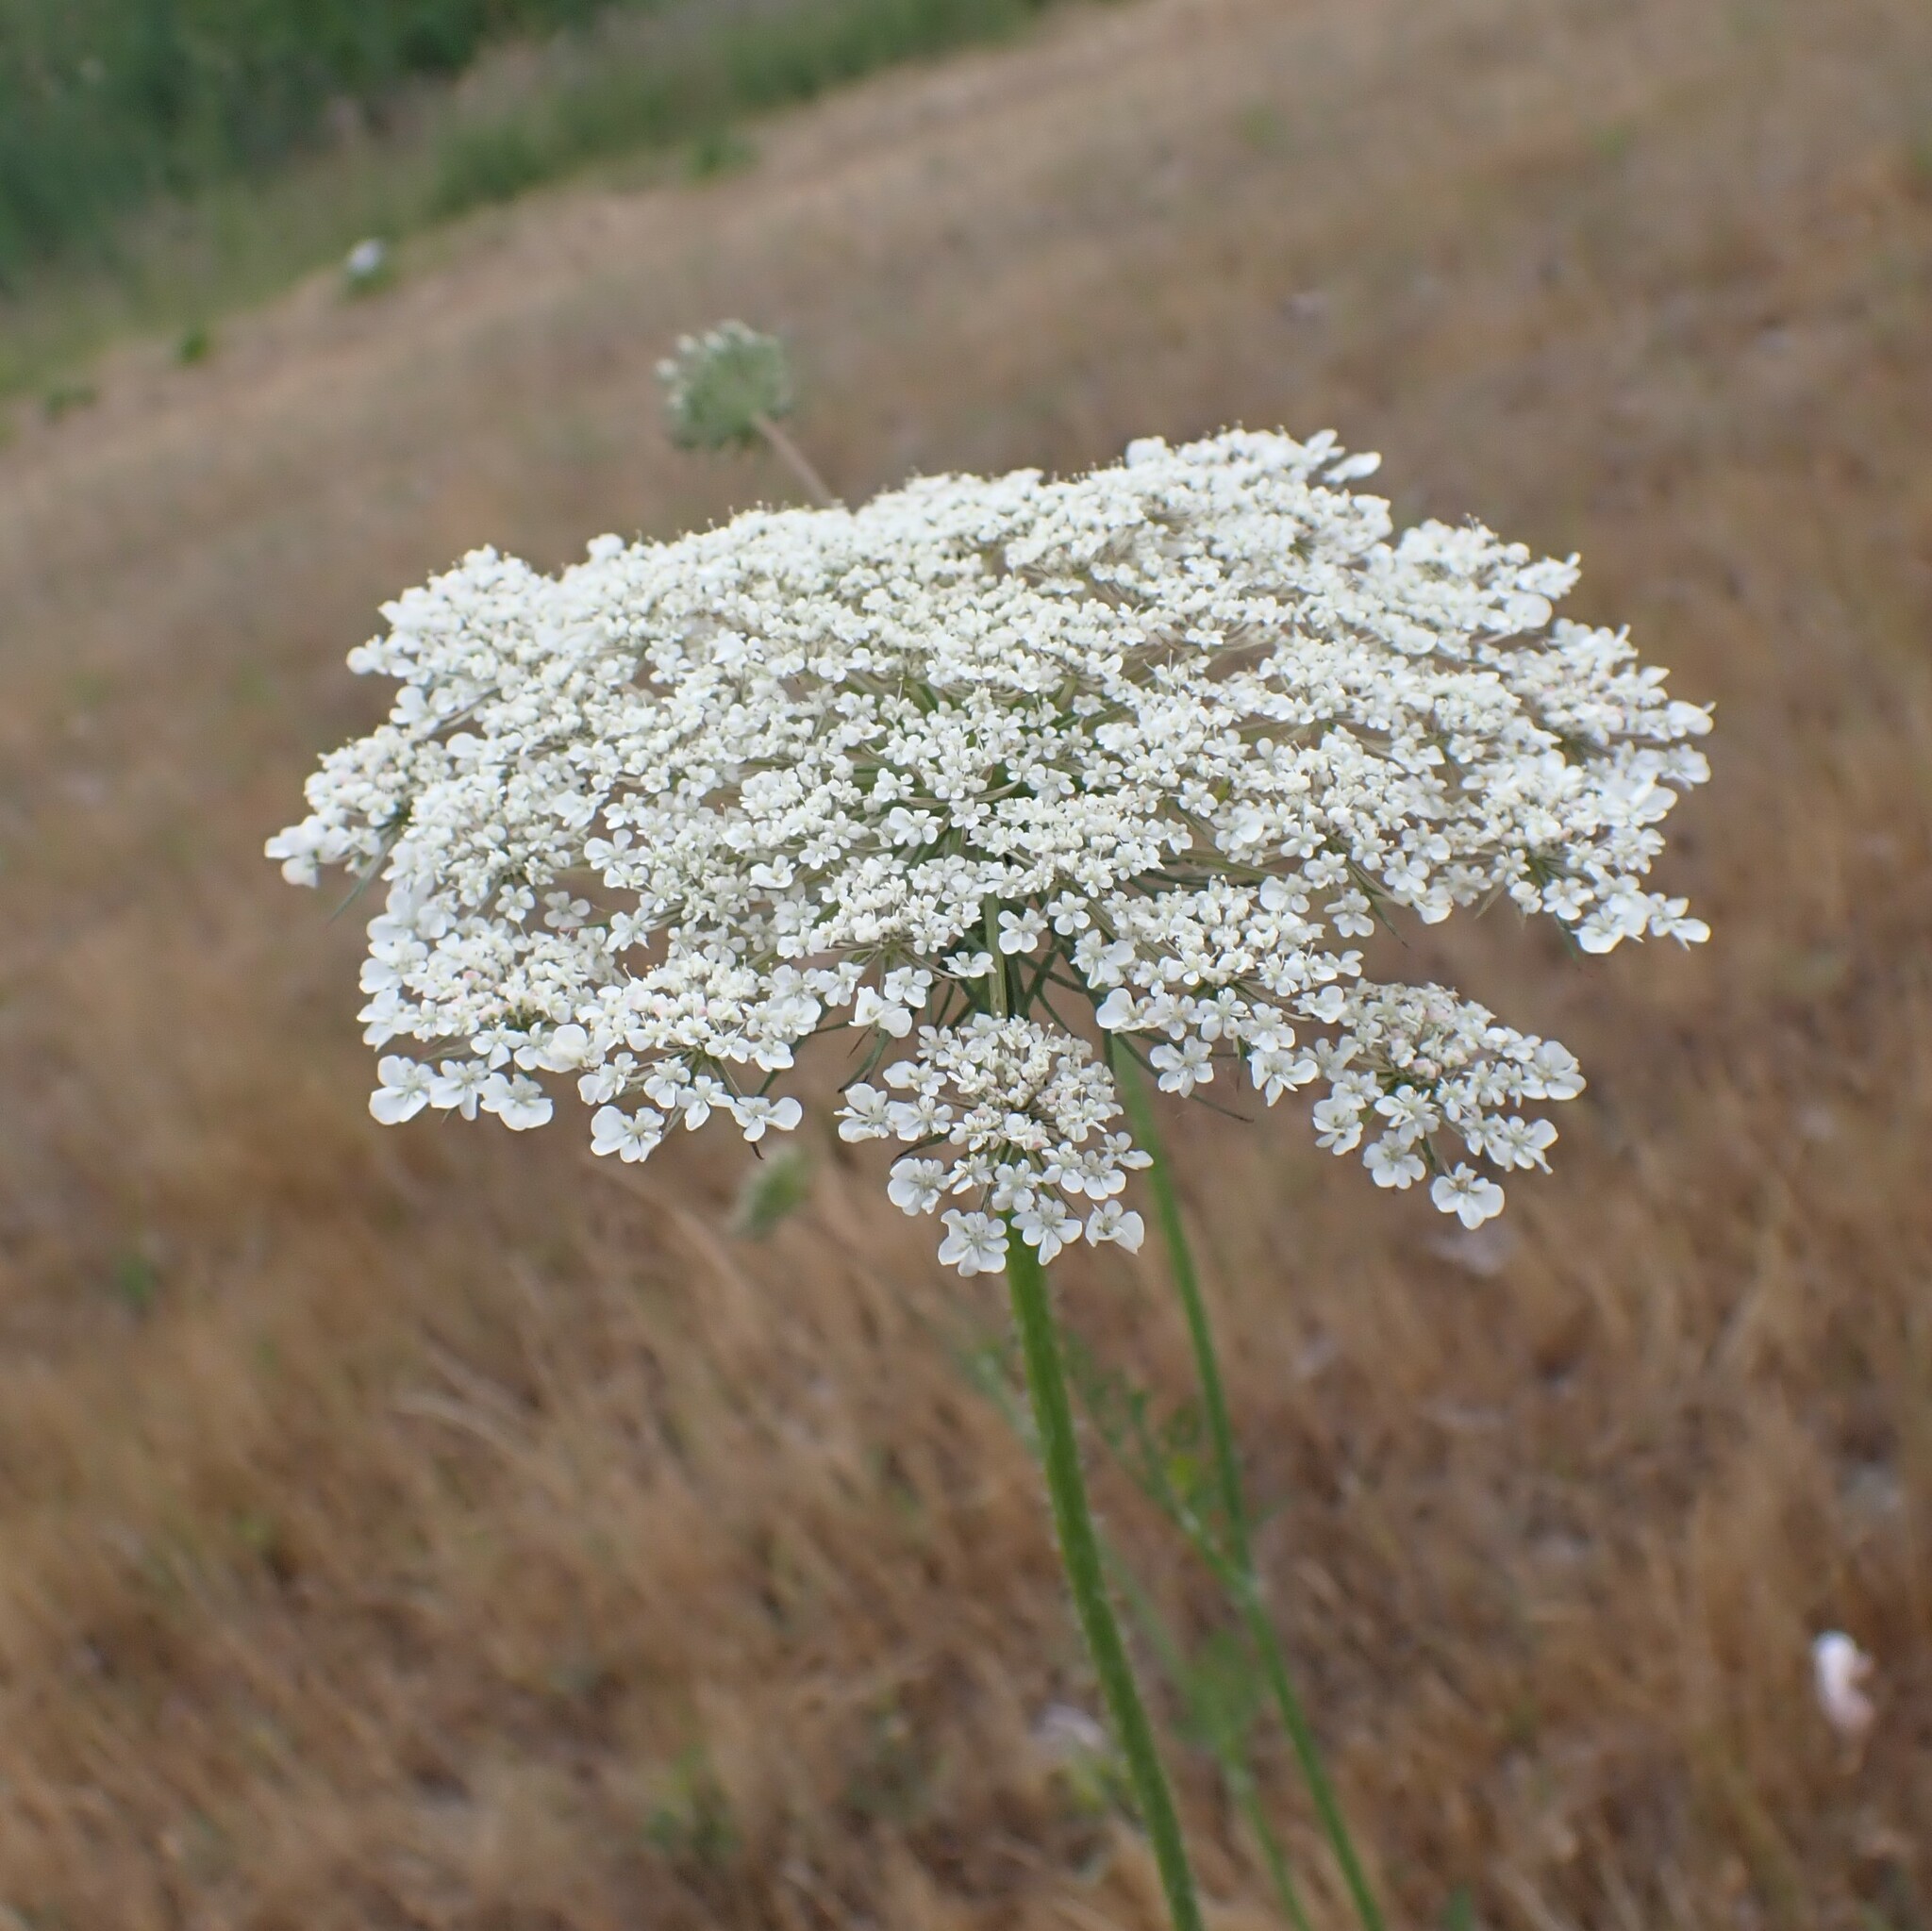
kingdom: Plantae
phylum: Tracheophyta
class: Magnoliopsida
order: Apiales
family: Apiaceae
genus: Daucus
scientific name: Daucus carota
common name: Wild carrot
